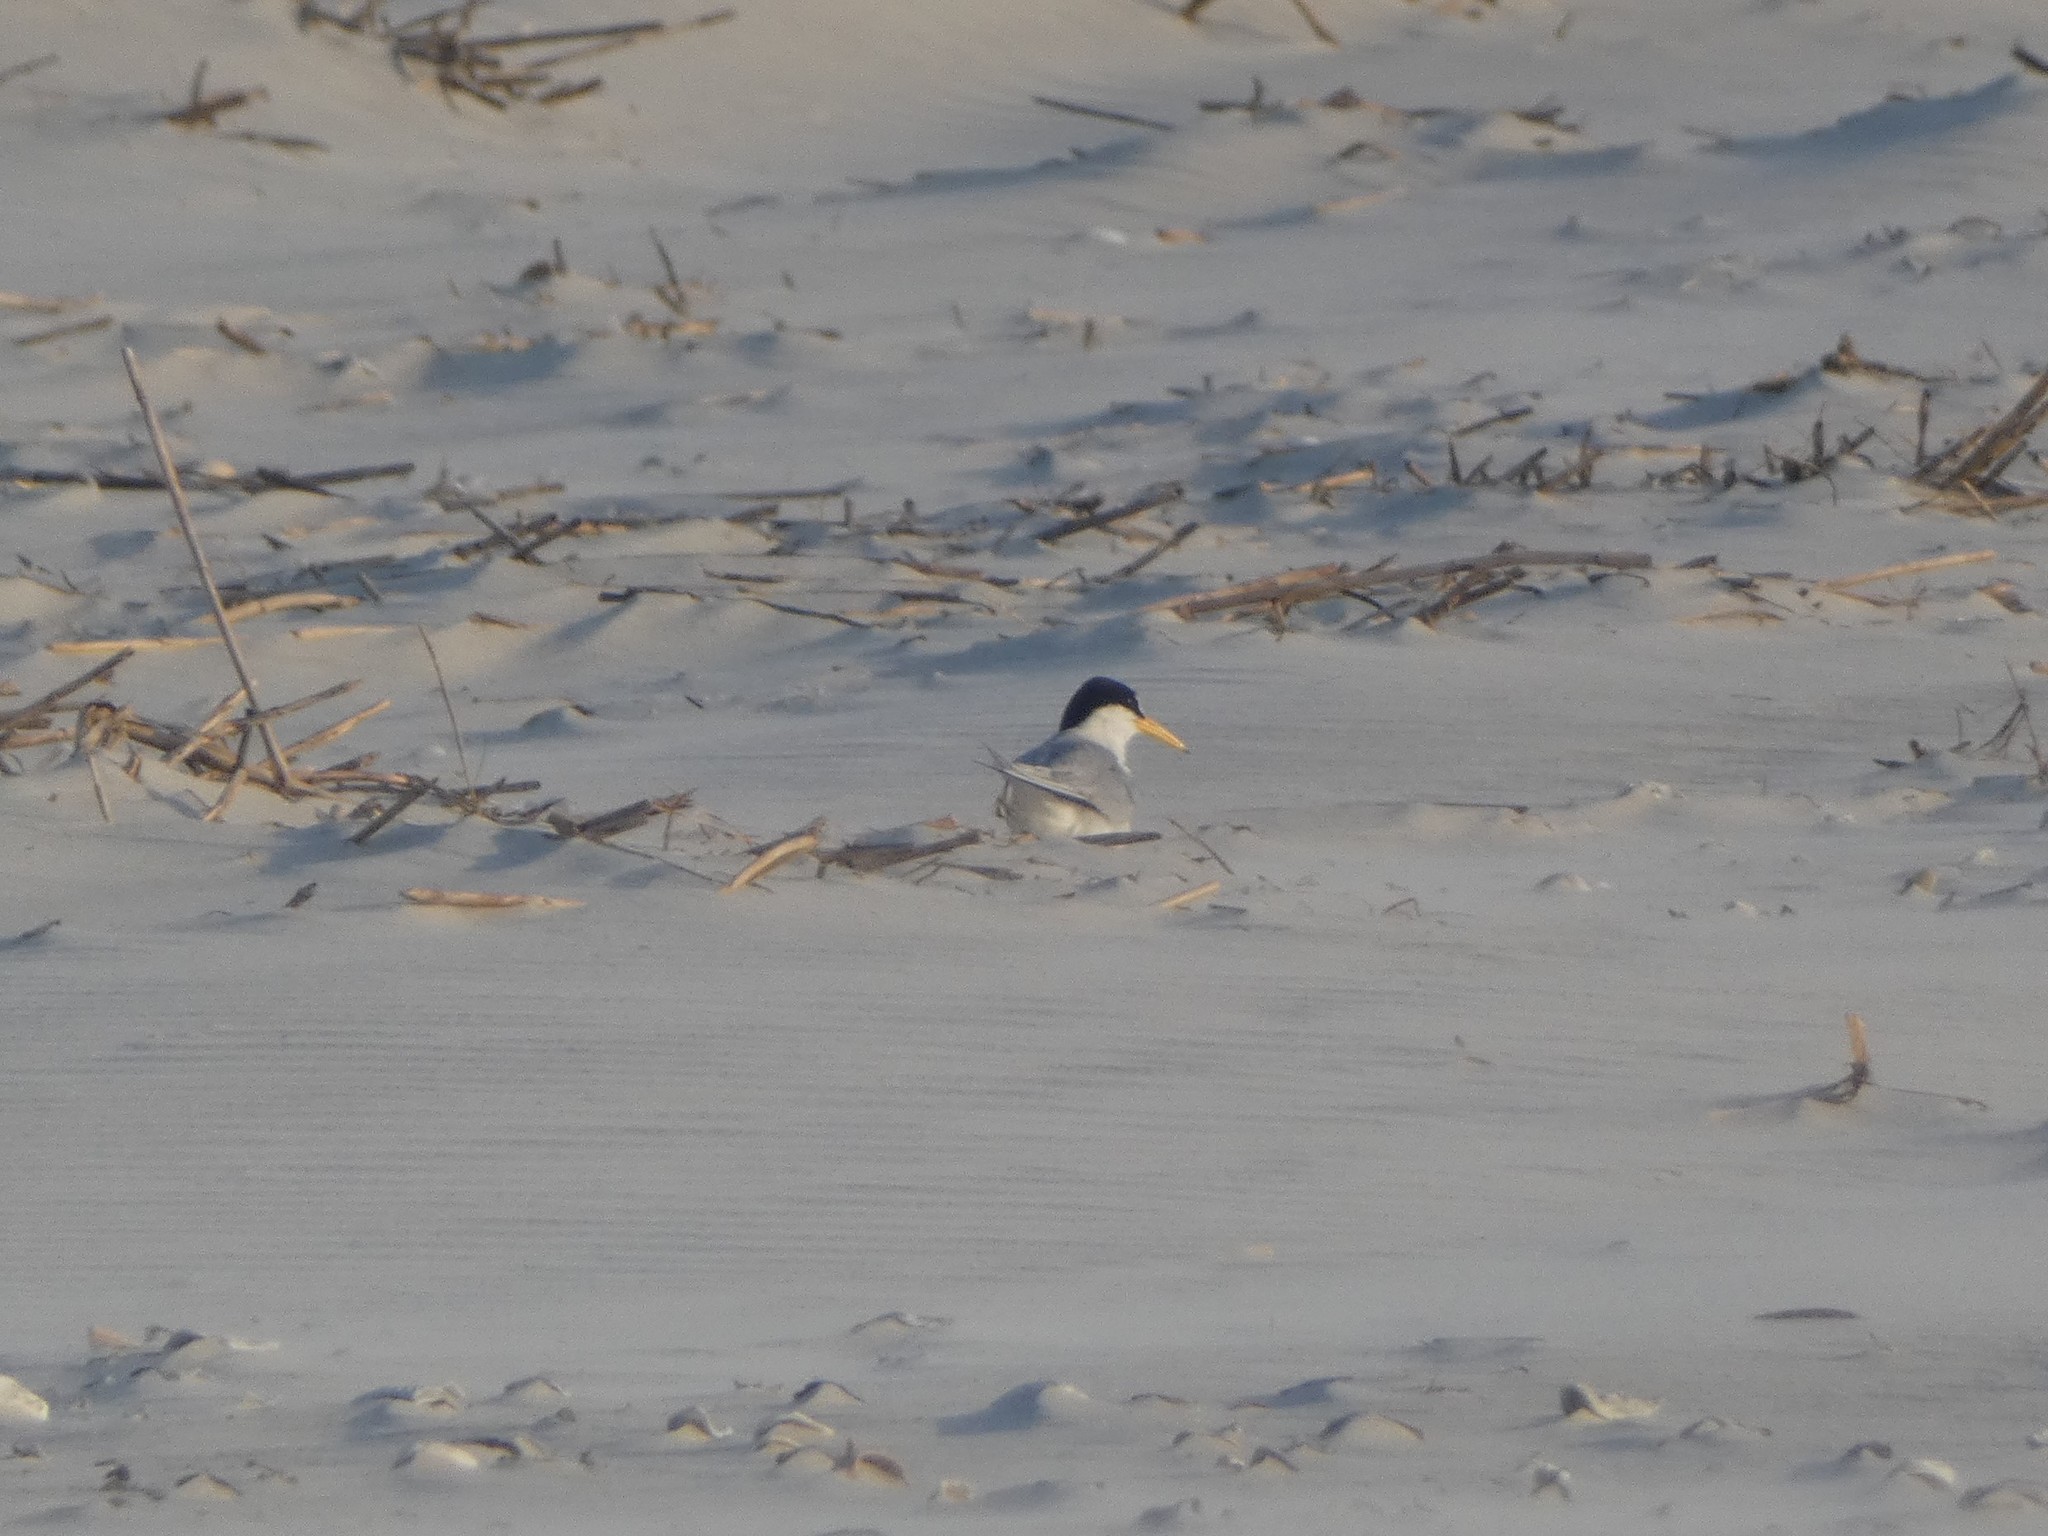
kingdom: Animalia
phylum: Chordata
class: Aves
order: Charadriiformes
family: Laridae
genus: Sternula
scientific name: Sternula antillarum
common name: Least tern
